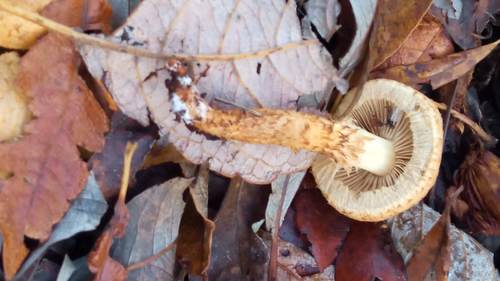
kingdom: Fungi
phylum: Basidiomycota
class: Agaricomycetes
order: Agaricales
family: Strophariaceae
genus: Pholiota
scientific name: Pholiota squarrosa
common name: Shaggy pholiota
